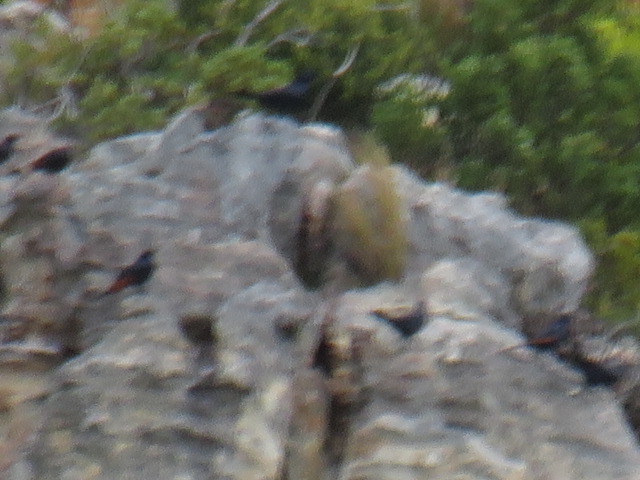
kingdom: Animalia
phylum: Chordata
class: Aves
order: Passeriformes
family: Sturnidae
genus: Onychognathus
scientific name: Onychognathus morio
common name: Red-winged starling
